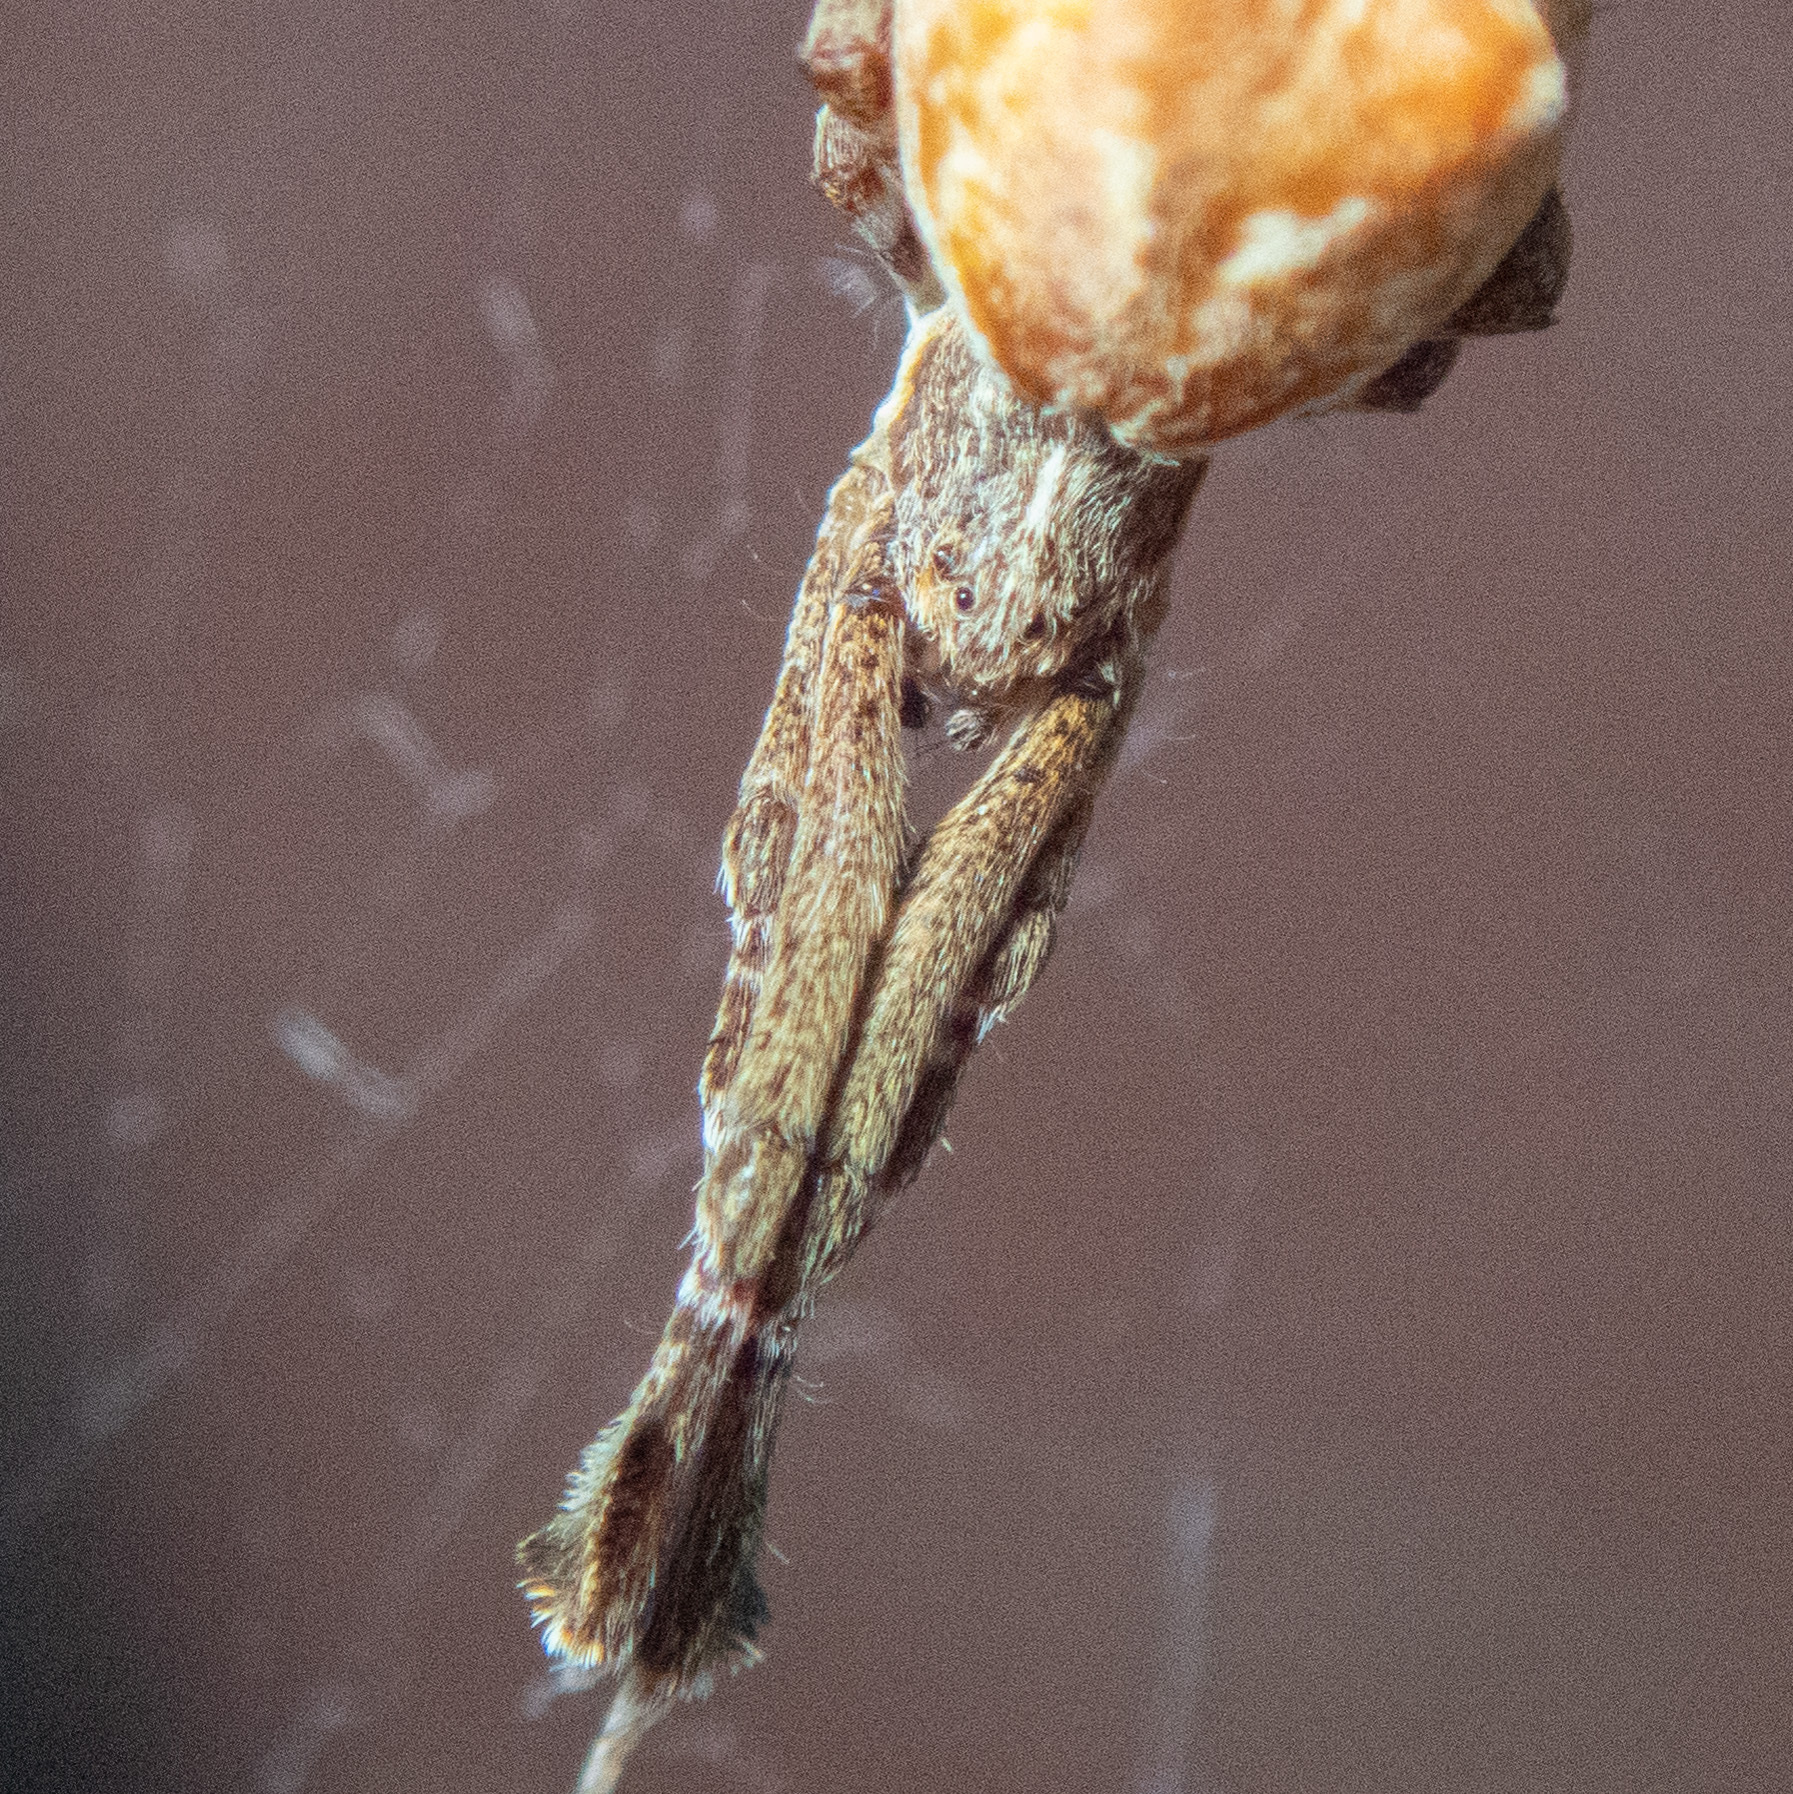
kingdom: Animalia
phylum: Arthropoda
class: Arachnida
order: Araneae
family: Uloboridae
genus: Uloborus
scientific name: Uloborus glomosus
